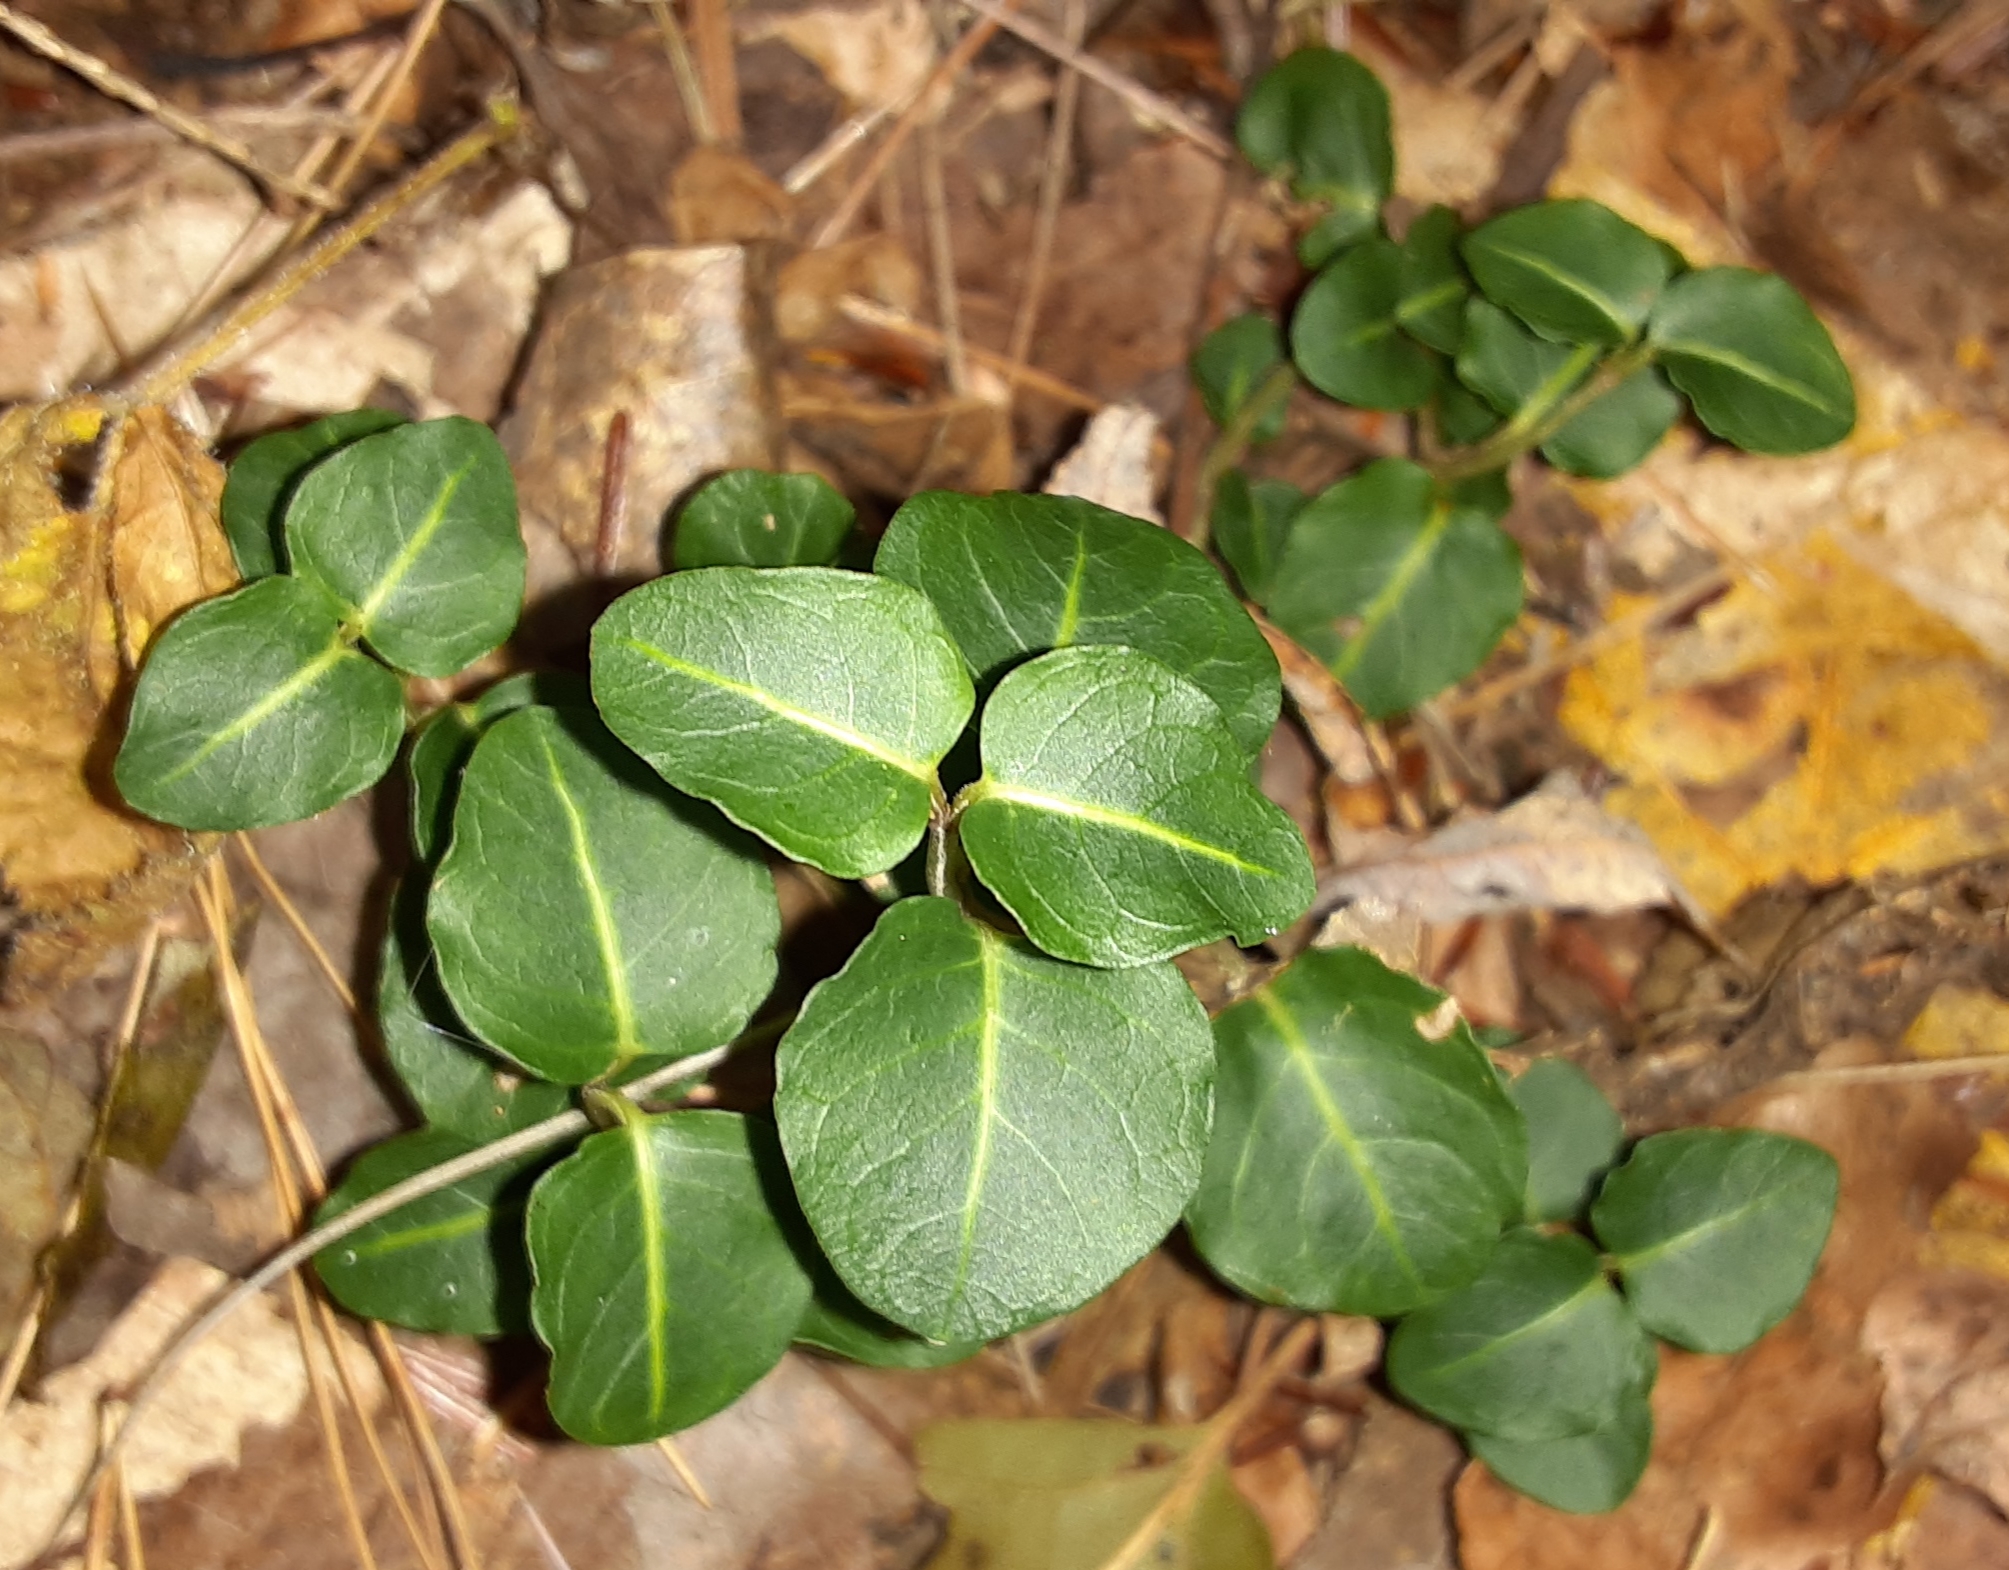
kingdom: Plantae
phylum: Tracheophyta
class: Magnoliopsida
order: Gentianales
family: Rubiaceae
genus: Mitchella
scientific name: Mitchella repens
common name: Partridge-berry
